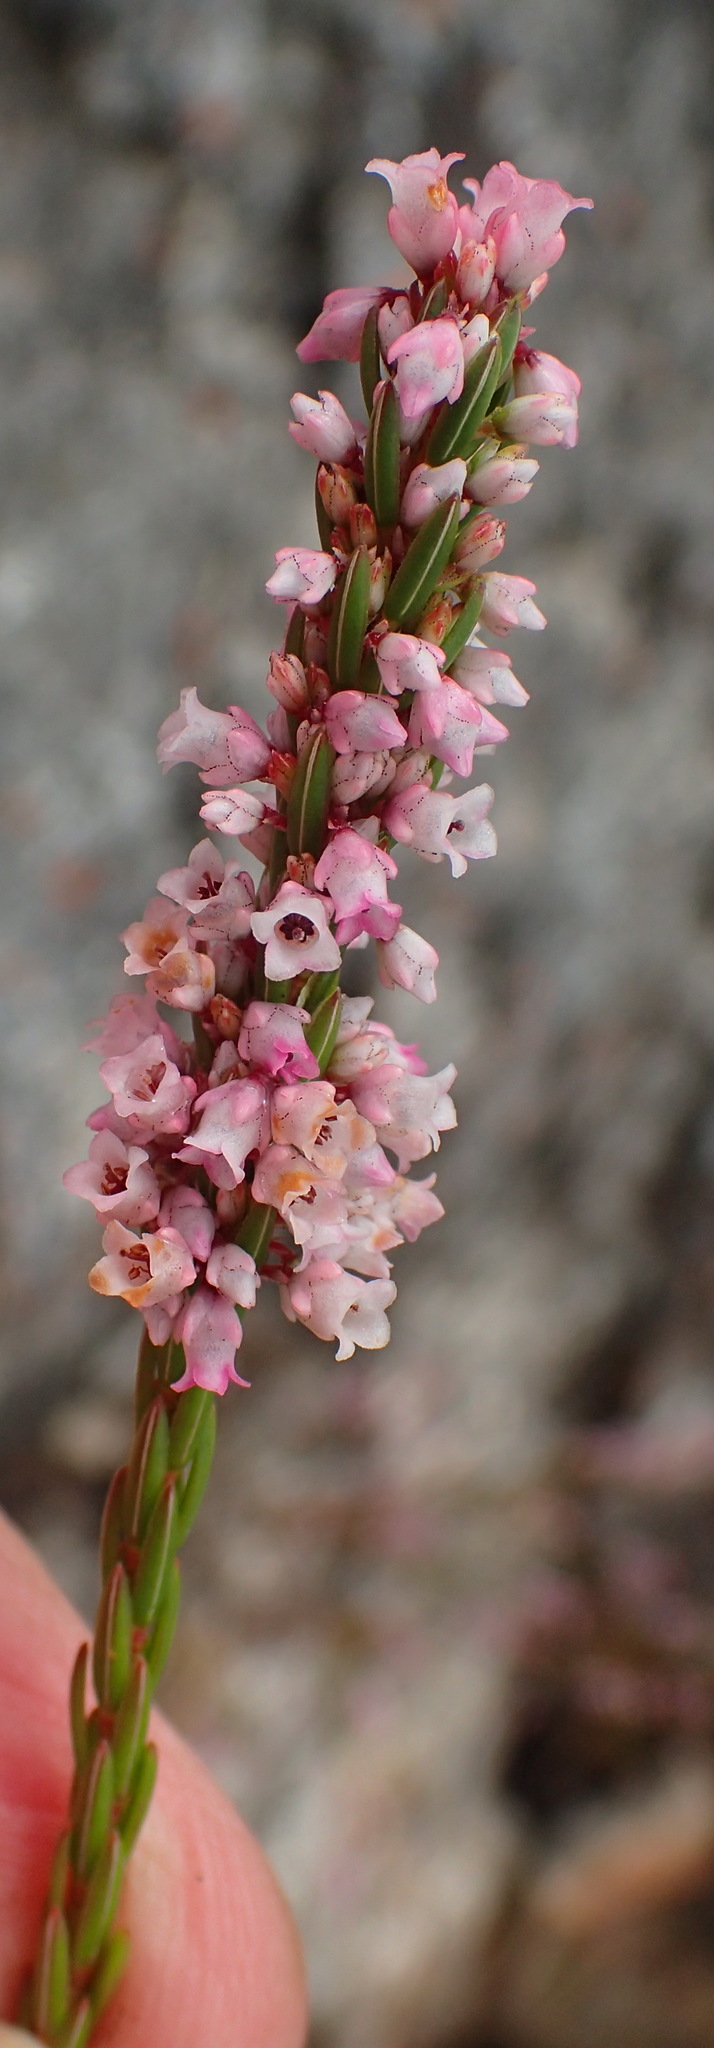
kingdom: Plantae
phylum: Tracheophyta
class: Magnoliopsida
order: Ericales
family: Ericaceae
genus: Erica
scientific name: Erica articularis
